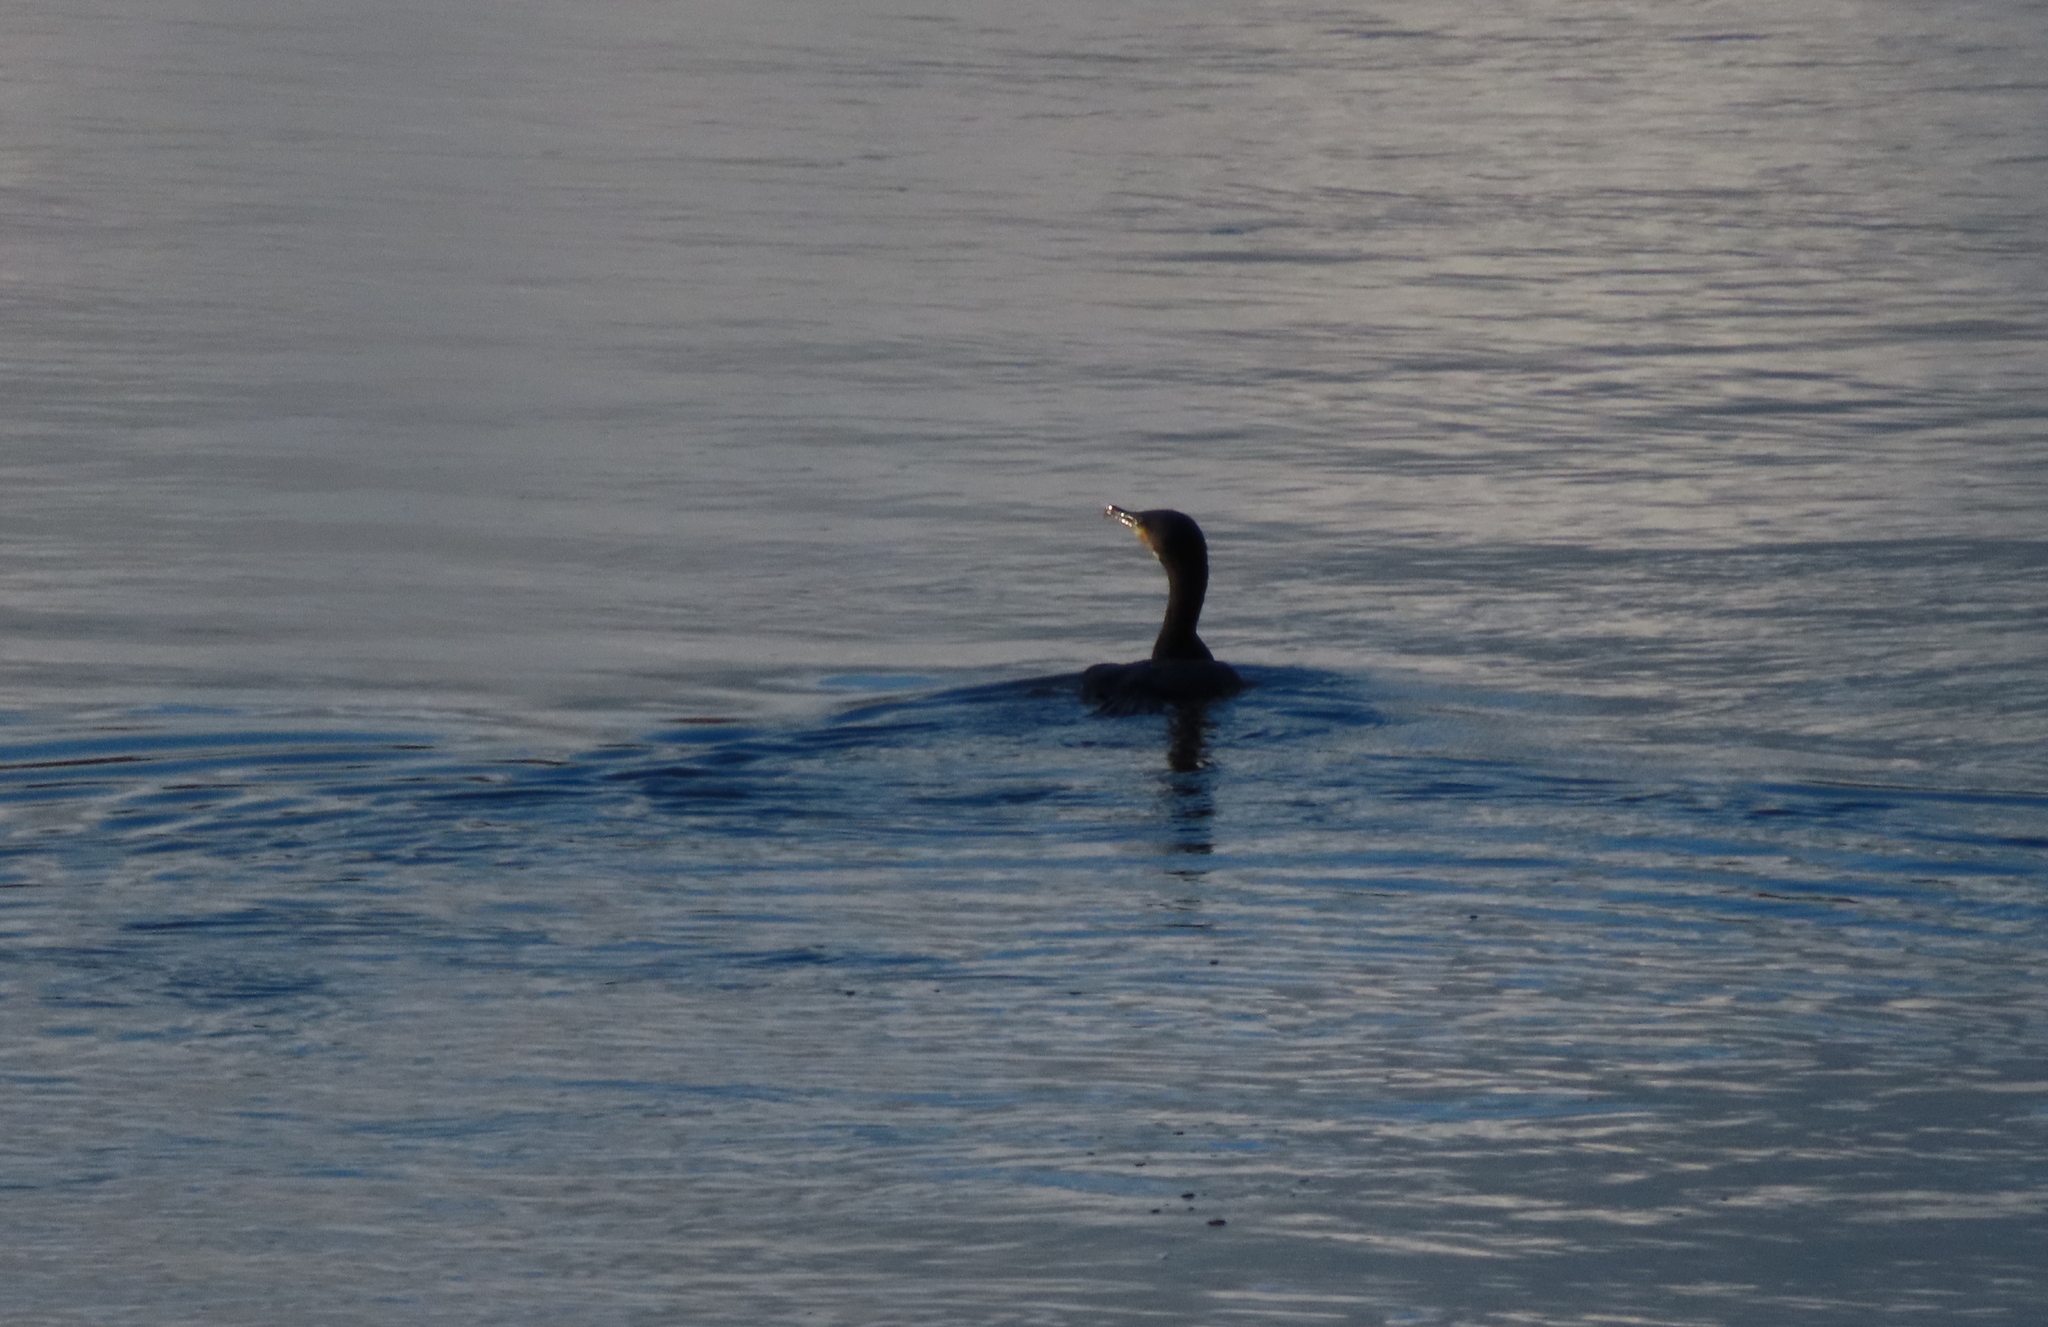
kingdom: Animalia
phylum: Chordata
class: Aves
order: Suliformes
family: Phalacrocoracidae
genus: Phalacrocorax
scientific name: Phalacrocorax carbo
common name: Great cormorant
